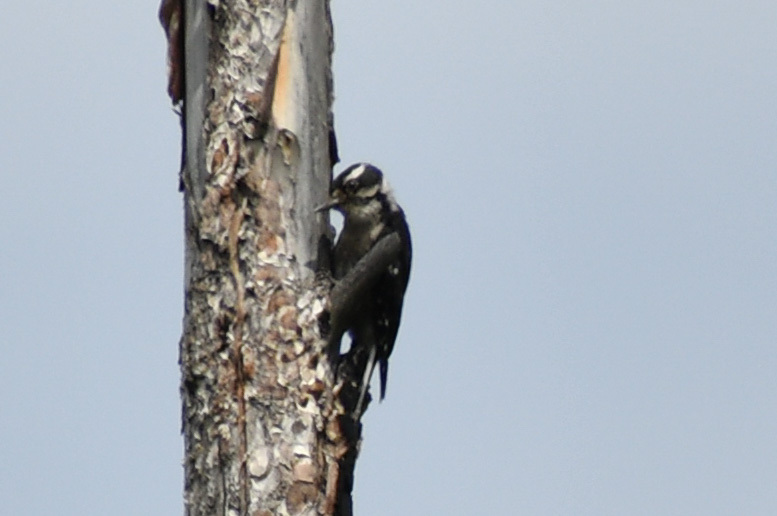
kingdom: Animalia
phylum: Chordata
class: Aves
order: Piciformes
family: Picidae
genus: Dryobates
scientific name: Dryobates pubescens
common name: Downy woodpecker
